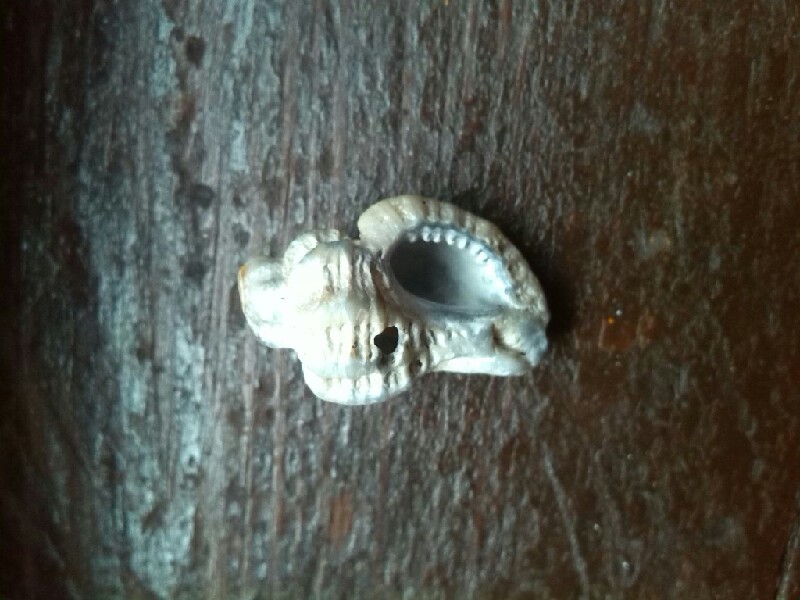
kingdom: Animalia
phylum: Mollusca
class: Gastropoda
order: Neogastropoda
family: Muricidae
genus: Ocenebra
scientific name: Ocenebra erinaceus
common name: European sting winkle
